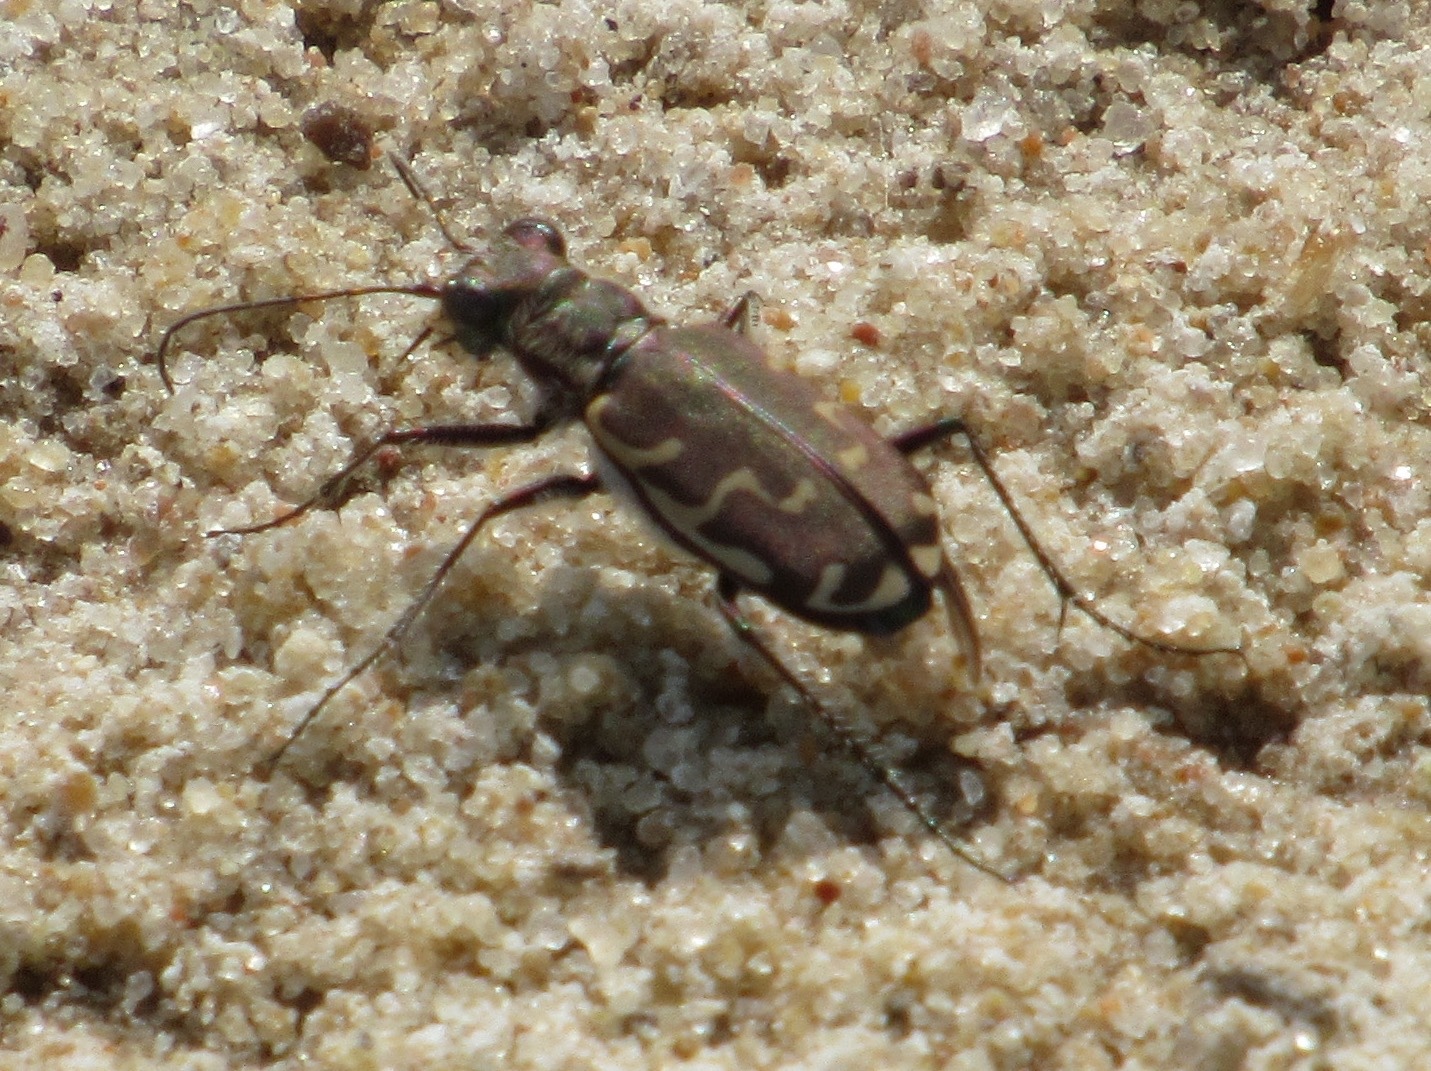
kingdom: Animalia
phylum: Arthropoda
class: Insecta
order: Coleoptera
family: Carabidae
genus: Cicindela
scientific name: Cicindela repanda
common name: Bronzed tiger beetle
